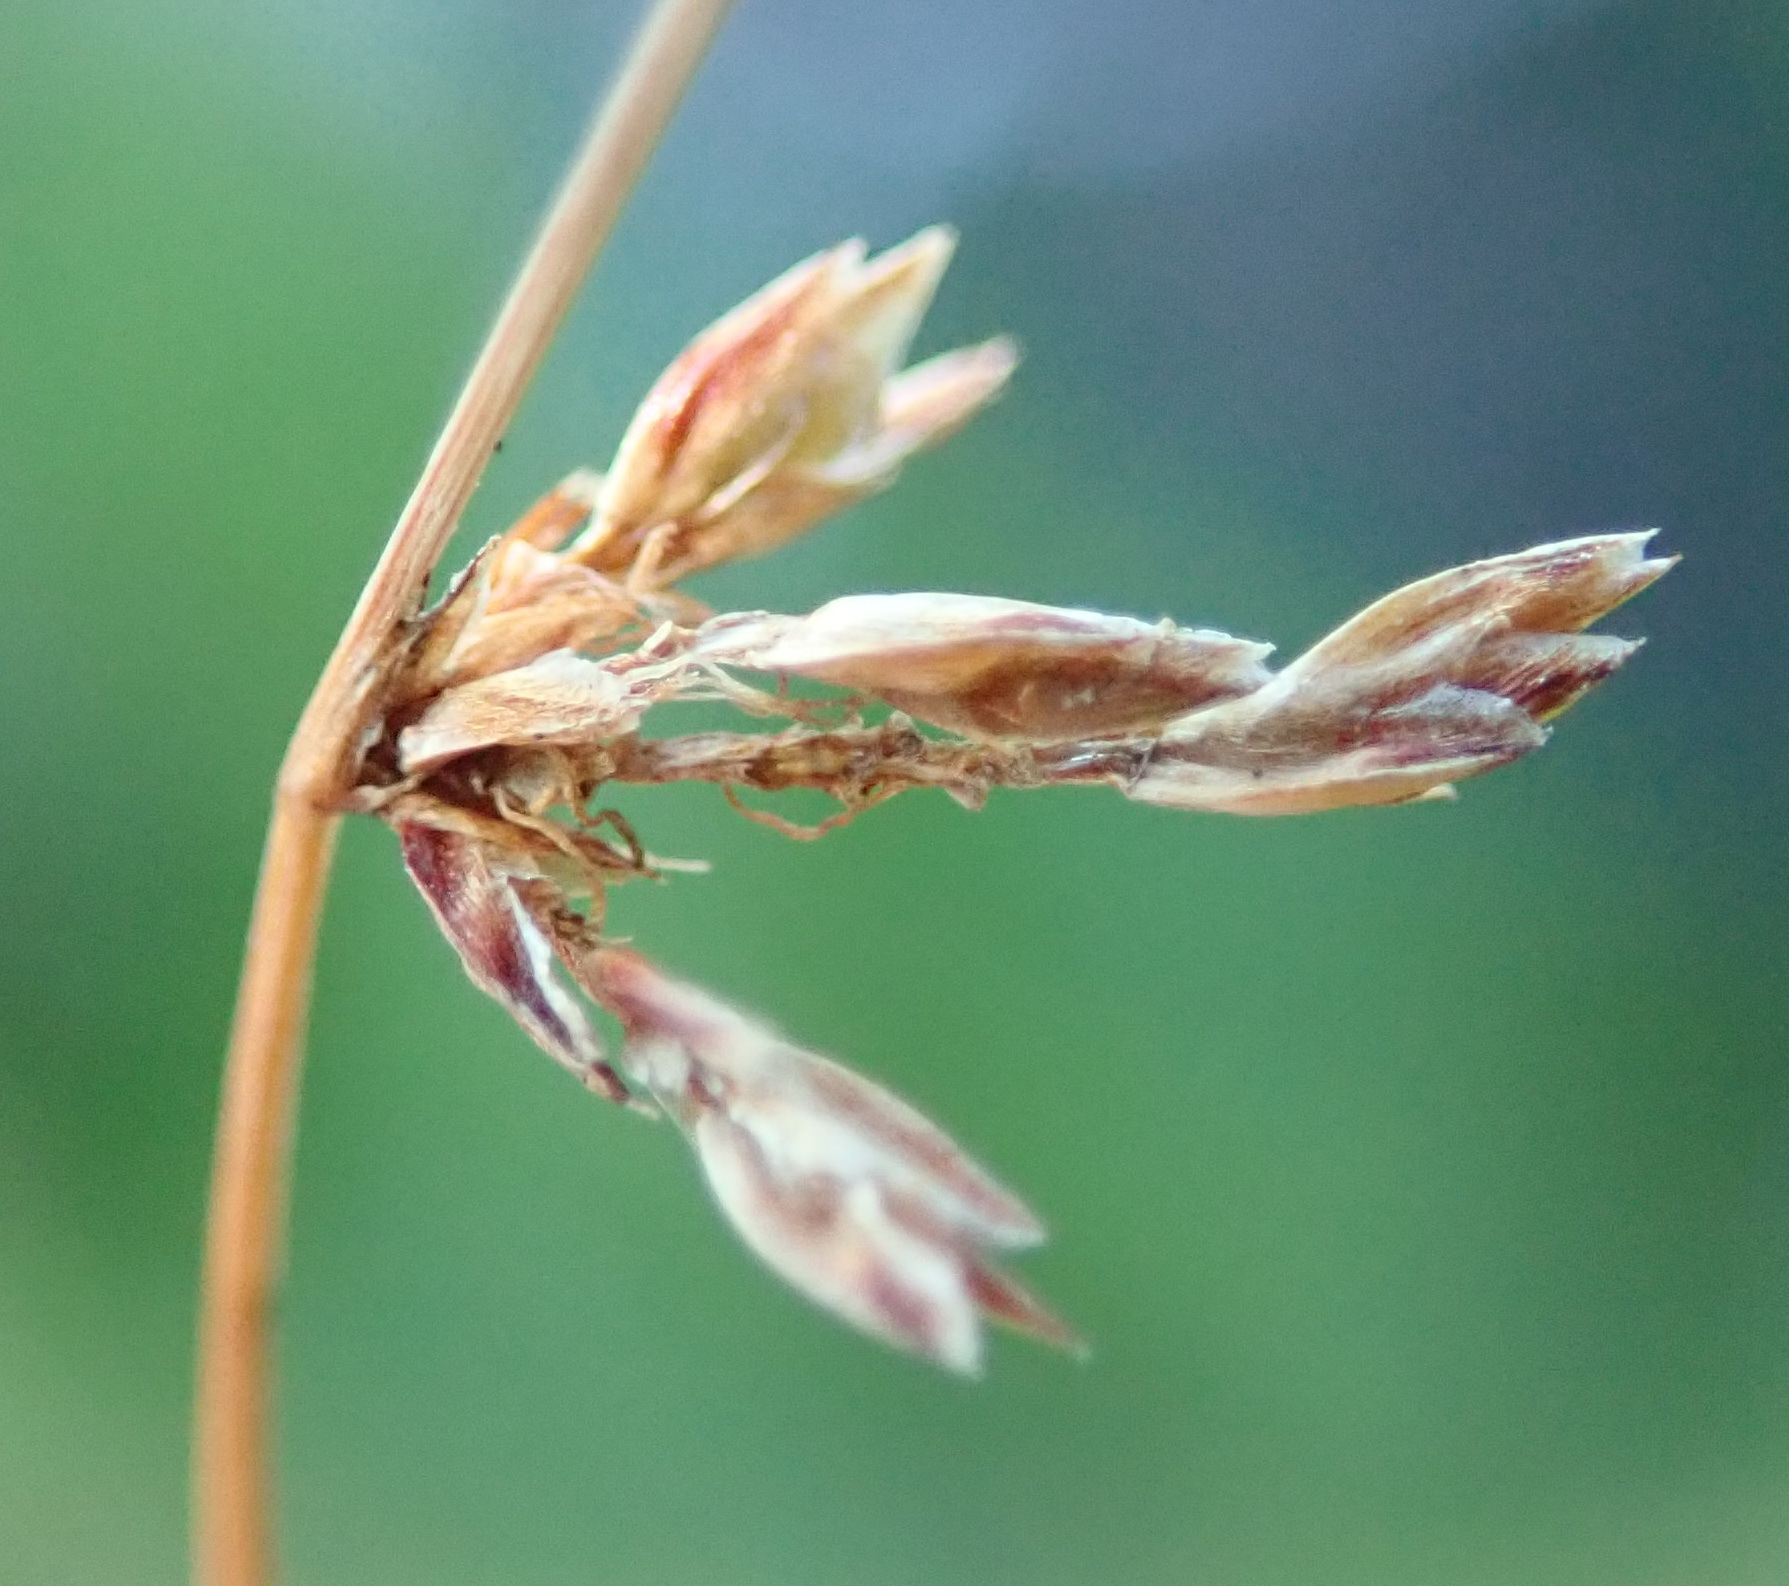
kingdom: Plantae
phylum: Tracheophyta
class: Liliopsida
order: Poales
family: Cyperaceae
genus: Ficinia
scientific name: Ficinia acuminata
